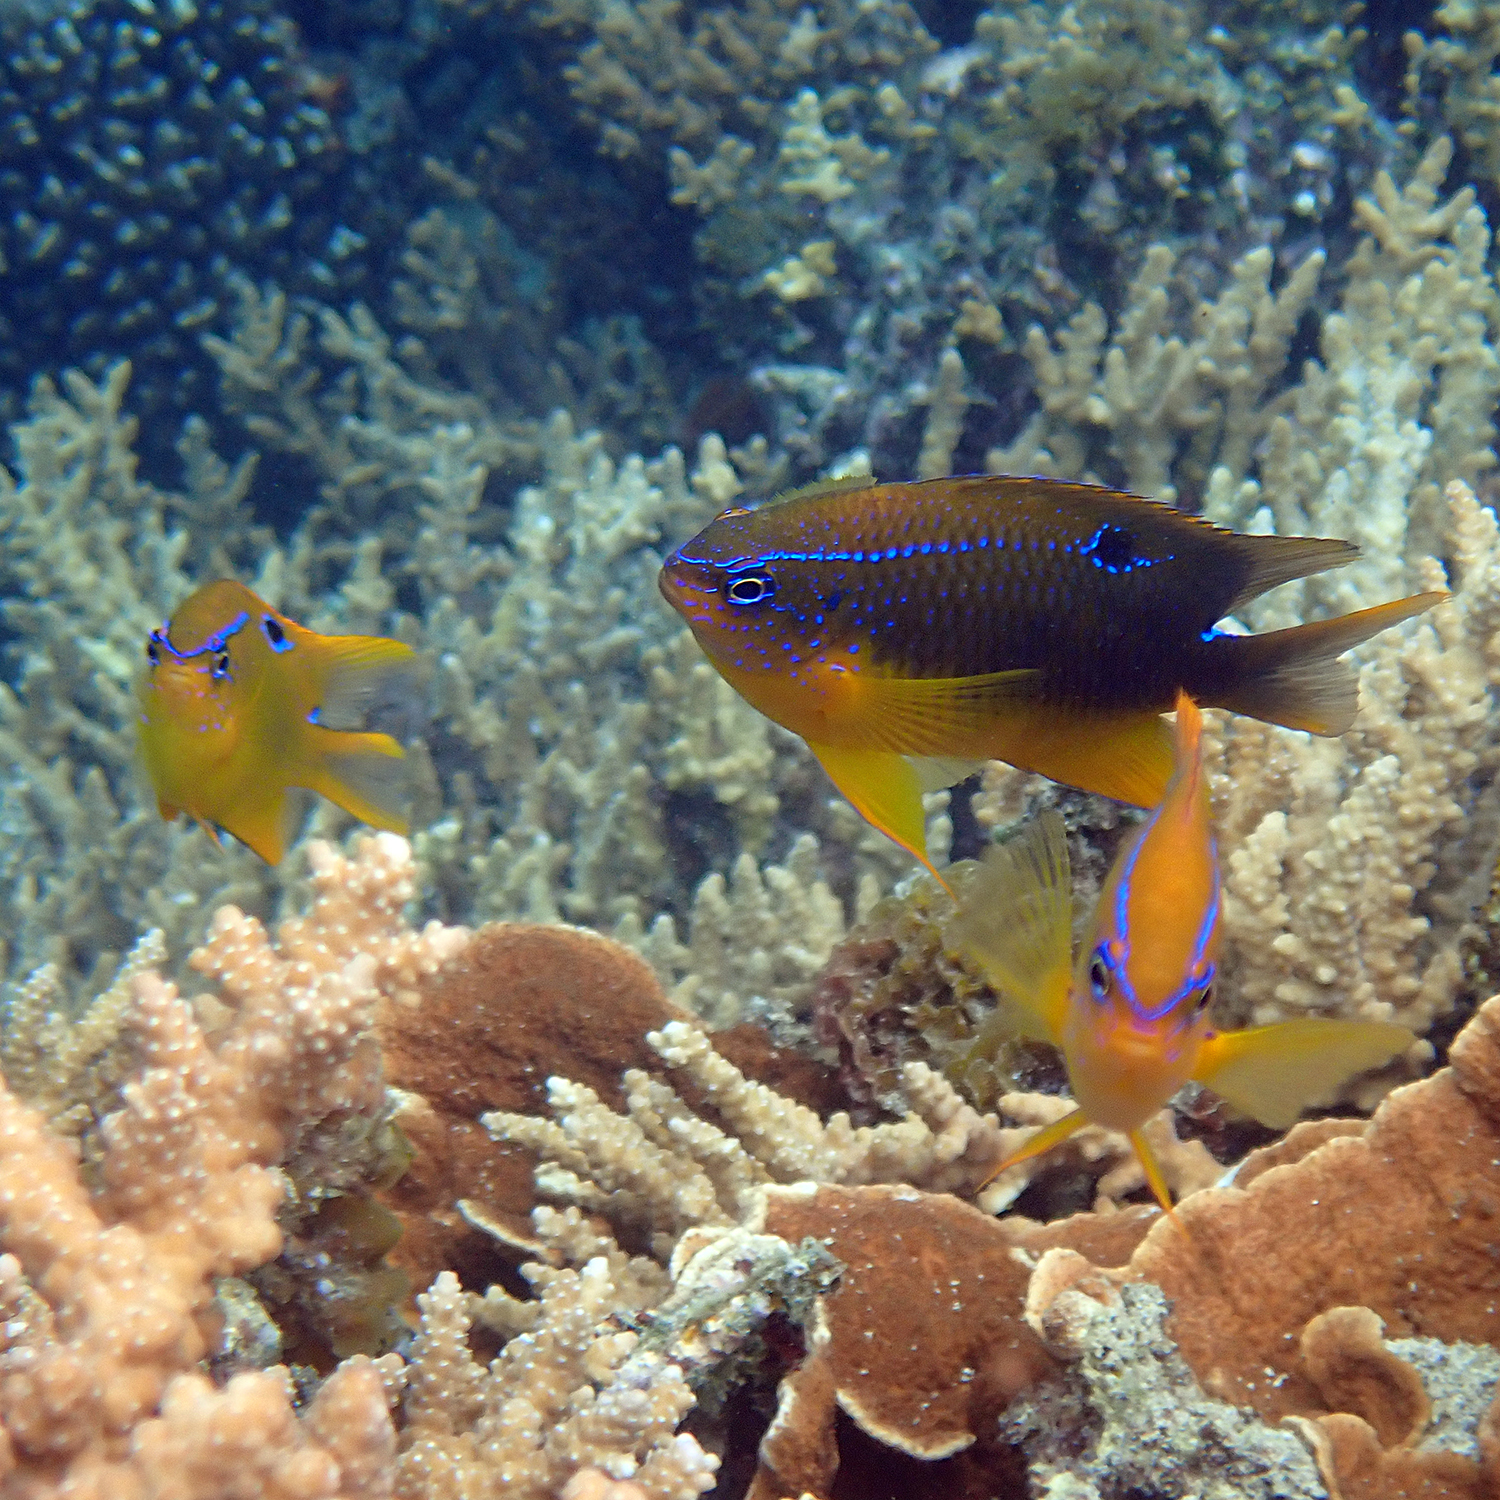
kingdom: Animalia
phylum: Chordata
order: Perciformes
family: Pomacentridae
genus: Neoglyphidodon
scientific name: Neoglyphidodon polyacanthus
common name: Multi-spined damsel
